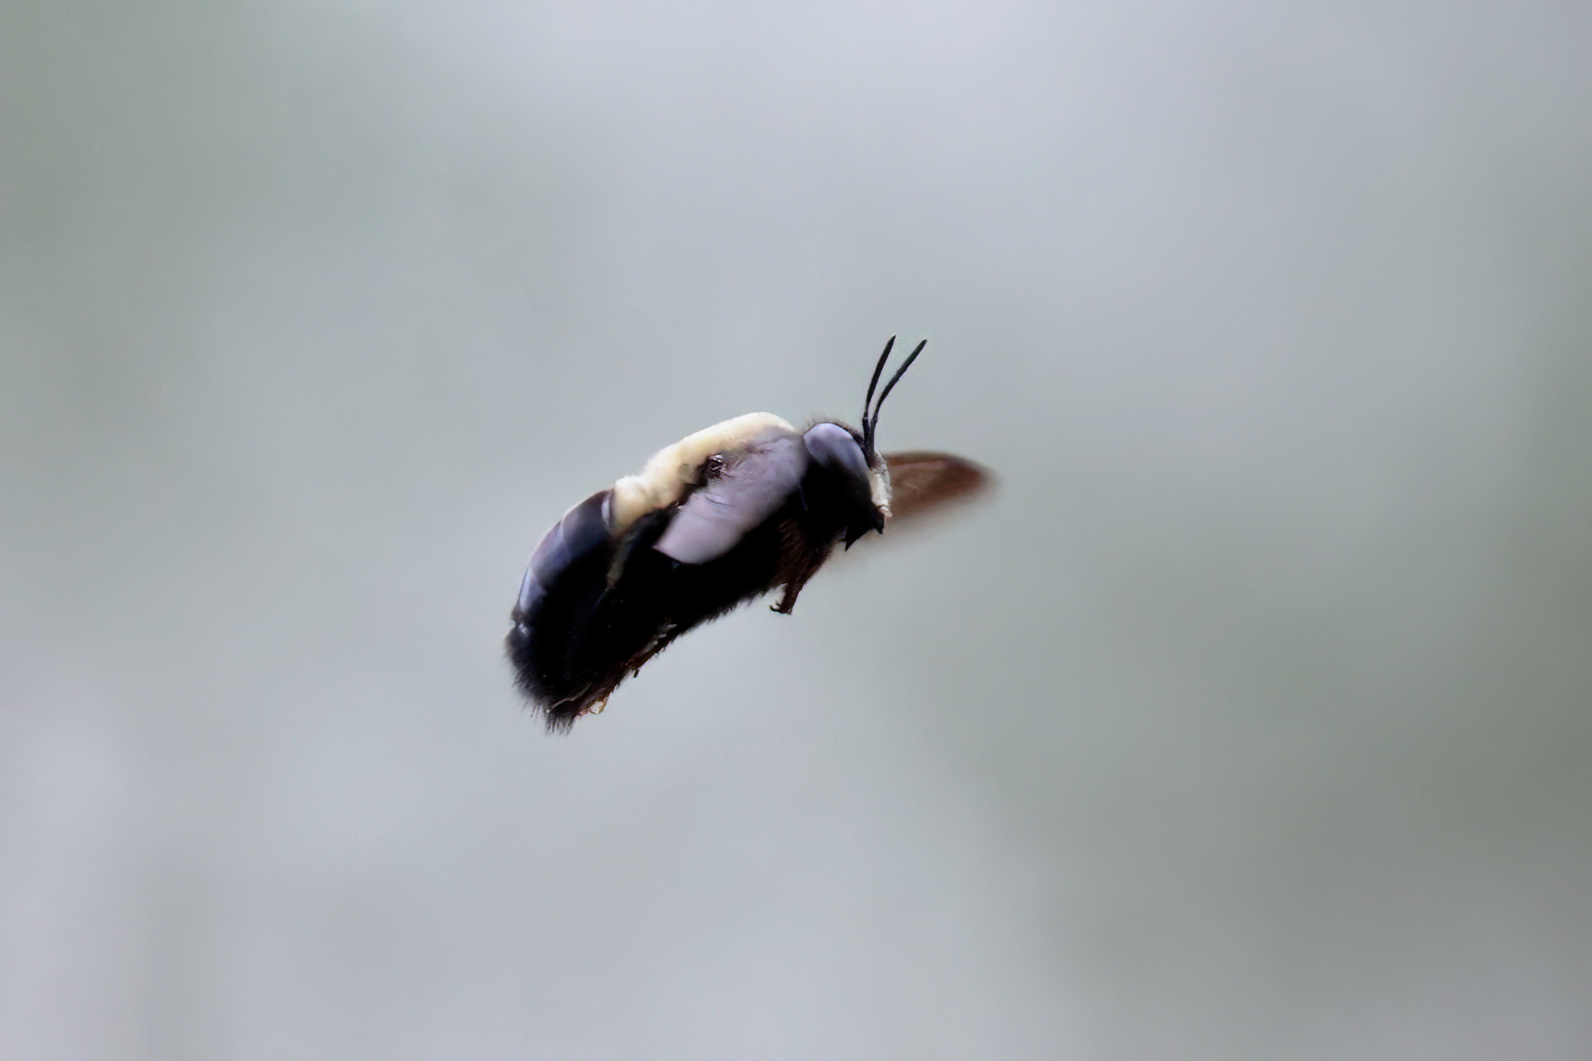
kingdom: Animalia
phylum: Arthropoda
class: Insecta
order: Hymenoptera
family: Apidae
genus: Xylocopa
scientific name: Xylocopa virginica
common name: Carpenter bee
